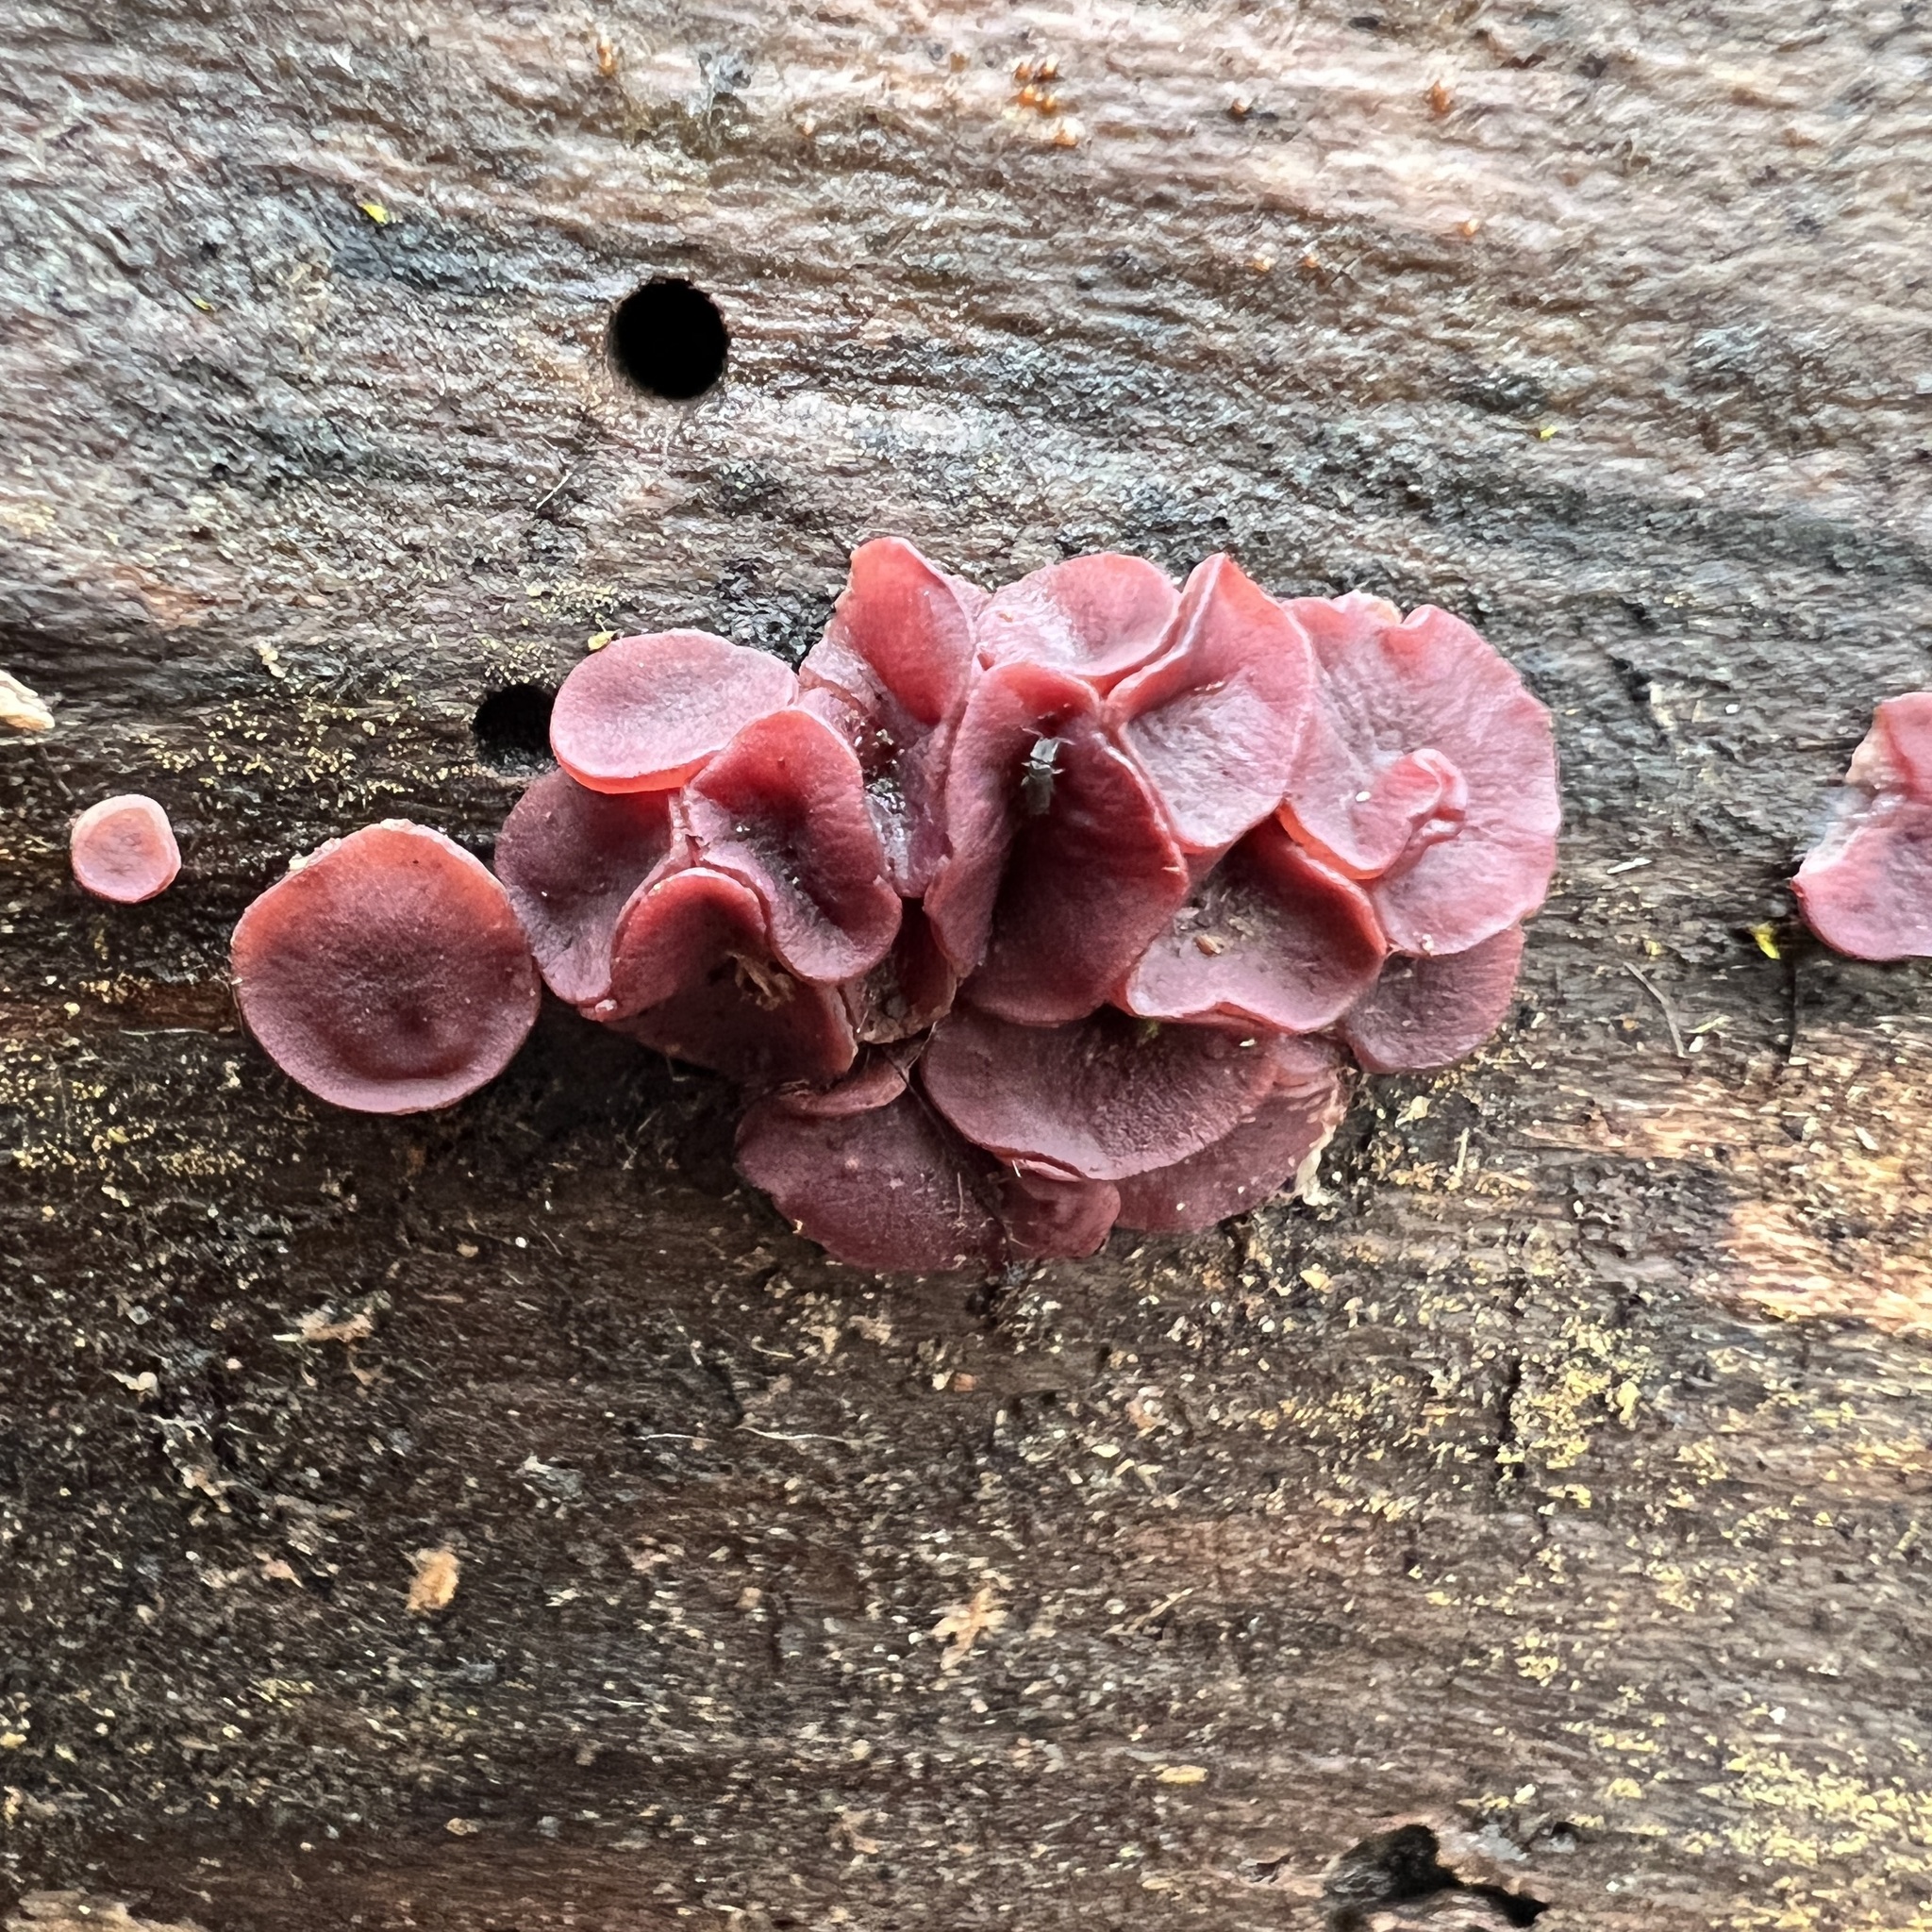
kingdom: Fungi
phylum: Ascomycota
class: Leotiomycetes
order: Helotiales
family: Gelatinodiscaceae
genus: Ascocoryne
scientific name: Ascocoryne cylichnium
